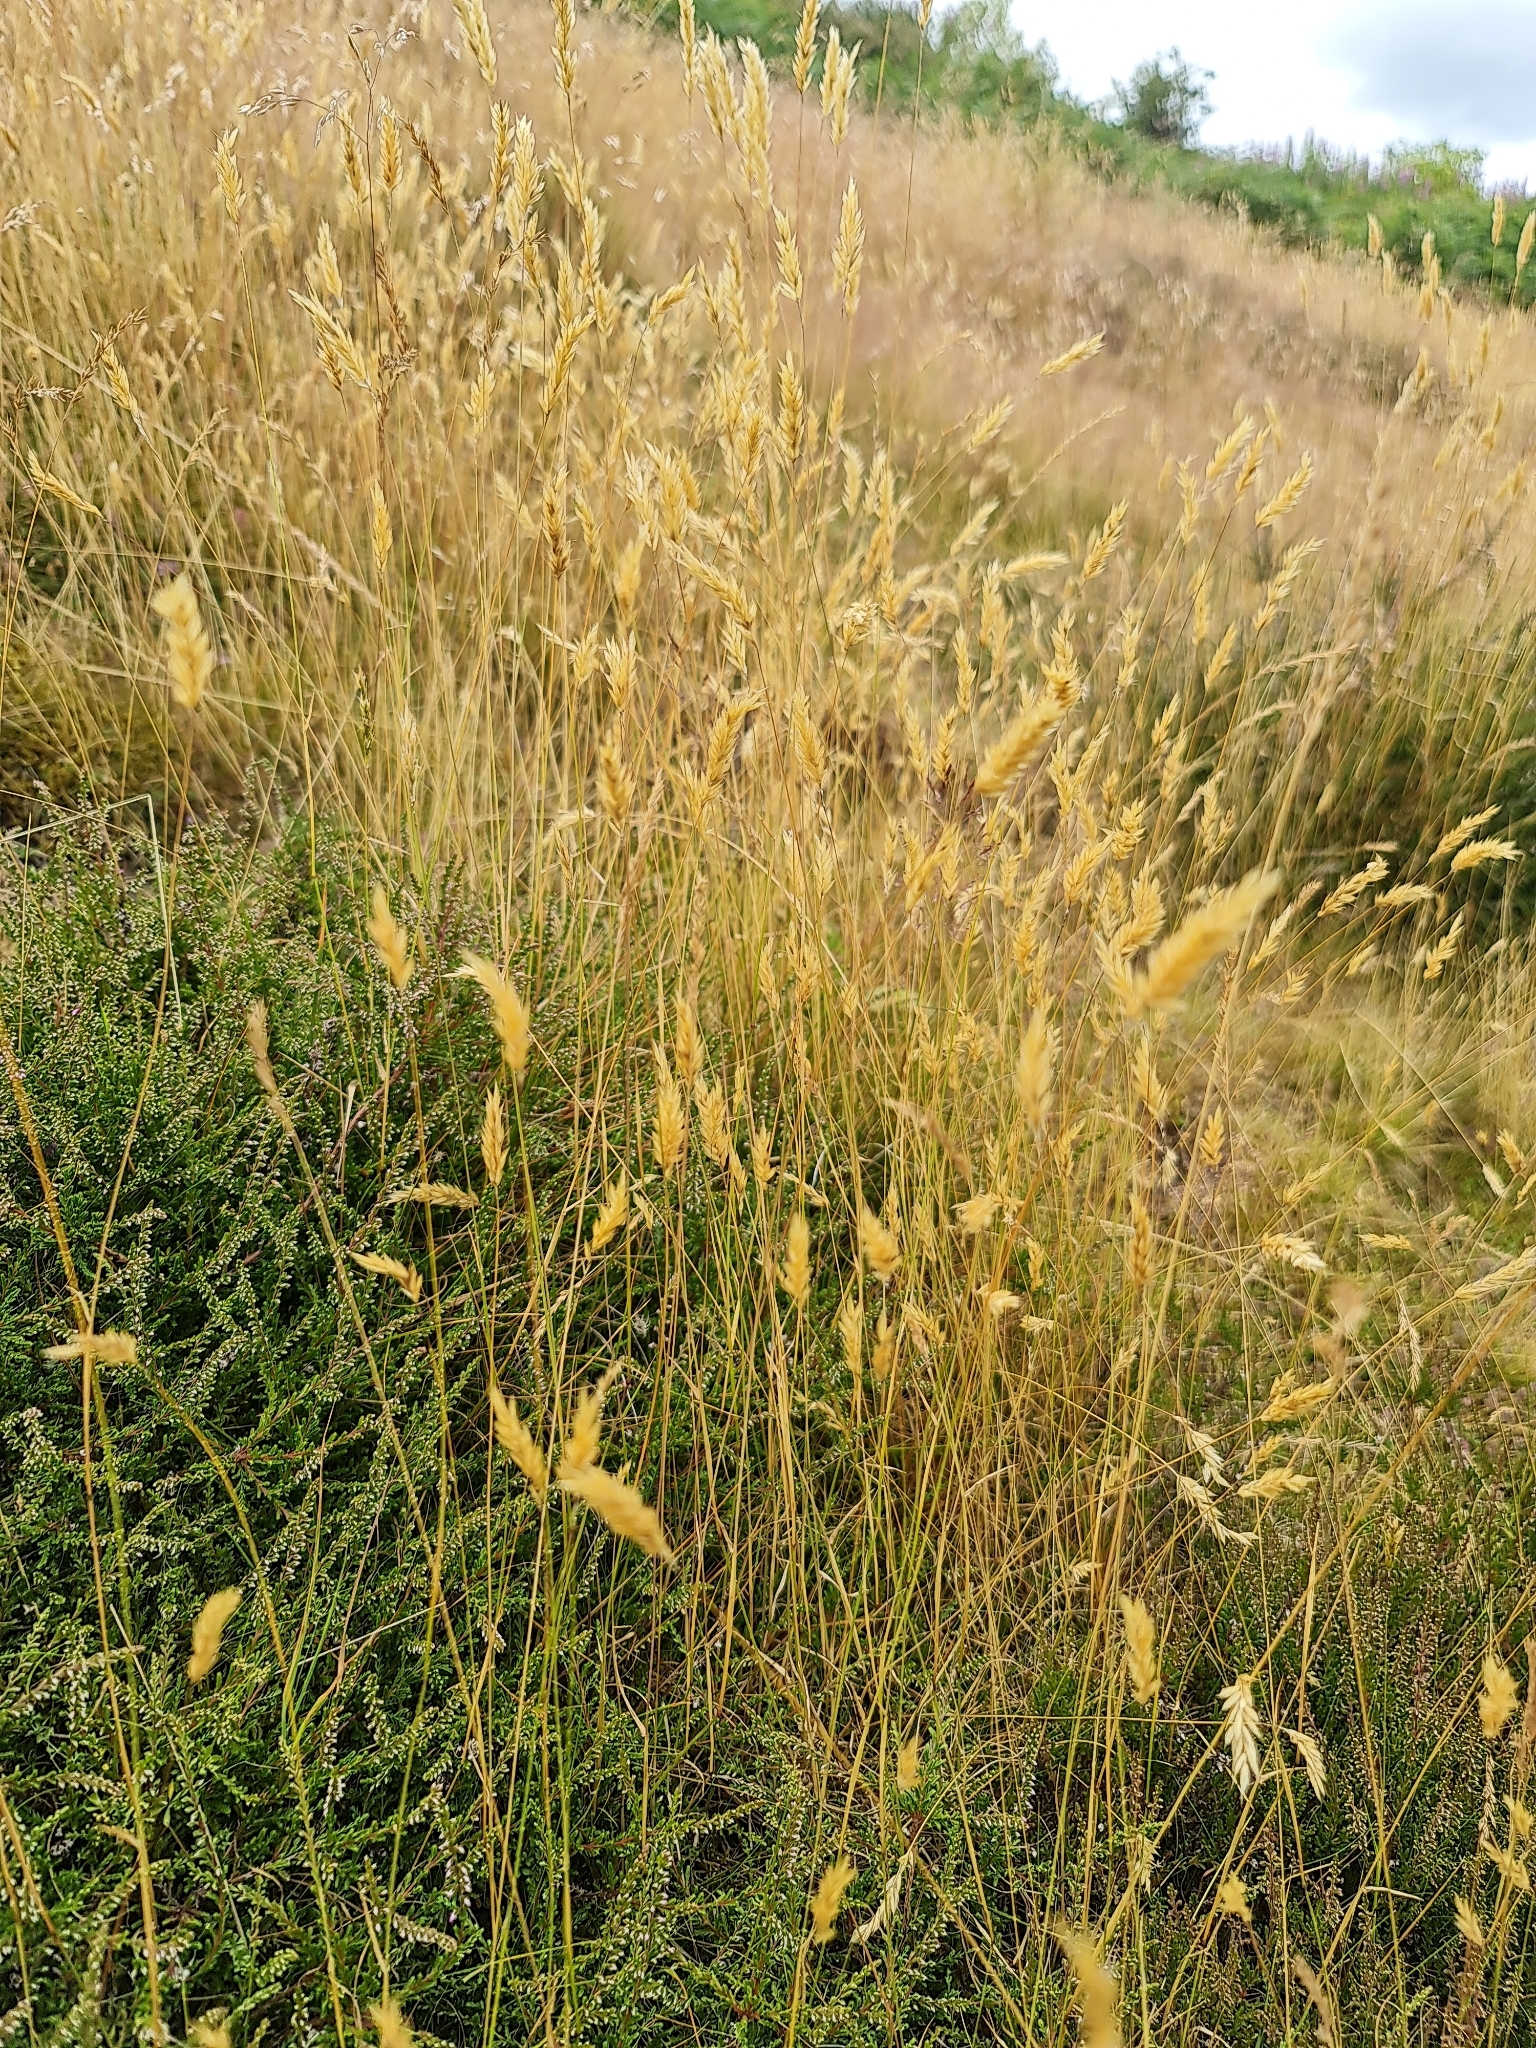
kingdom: Plantae
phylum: Tracheophyta
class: Liliopsida
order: Poales
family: Poaceae
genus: Anthoxanthum
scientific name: Anthoxanthum odoratum
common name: Sweet vernalgrass
